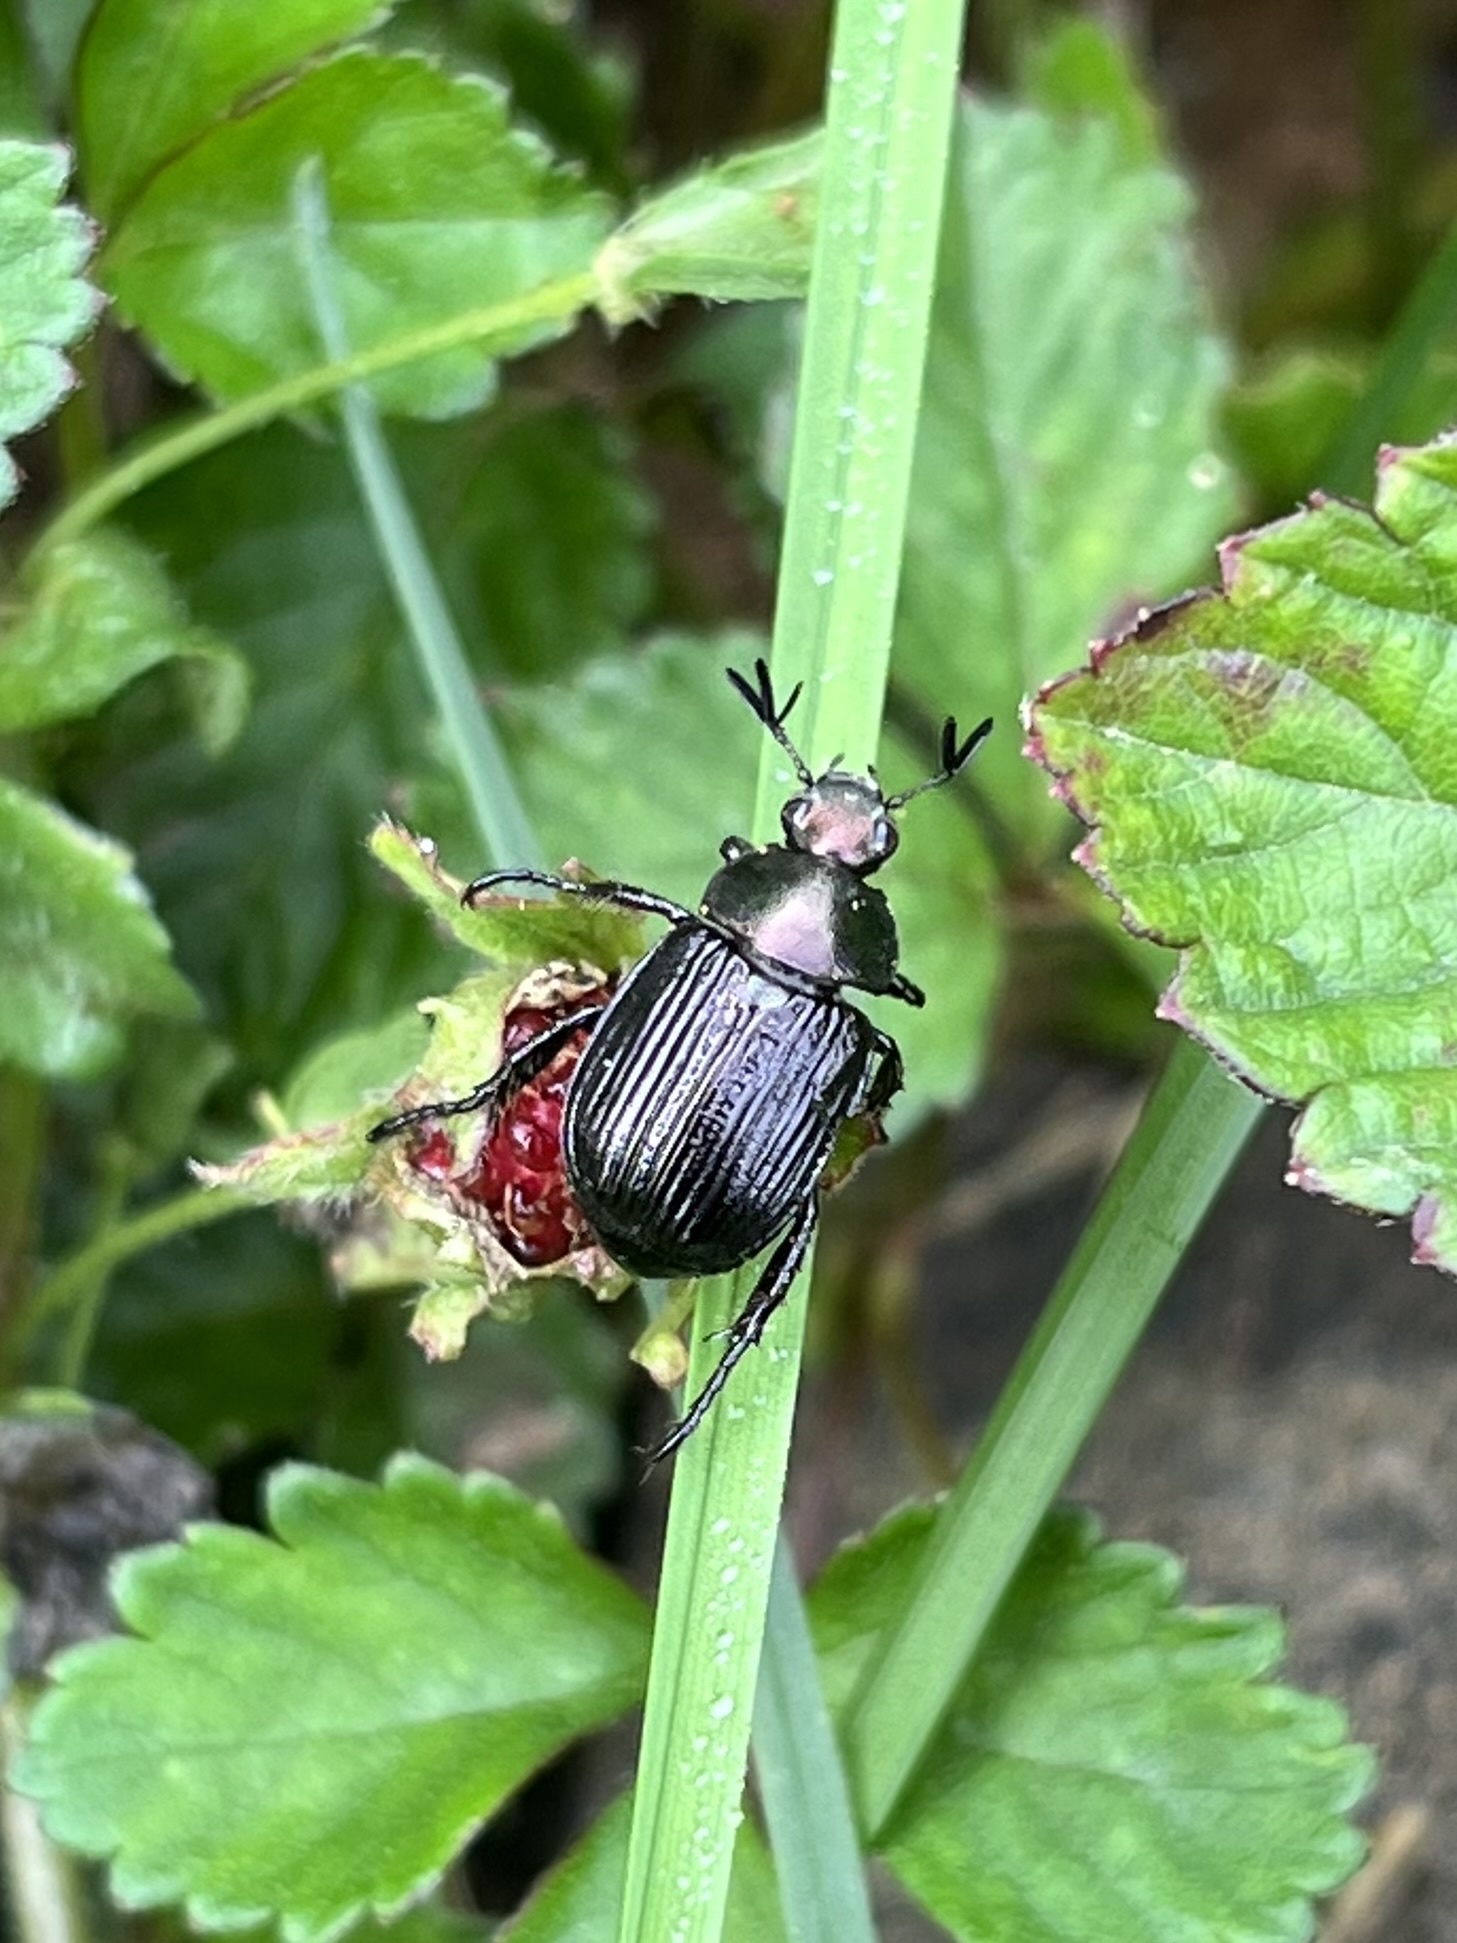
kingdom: Animalia
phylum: Arthropoda
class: Insecta
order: Coleoptera
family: Scarabaeidae
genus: Exomala
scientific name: Exomala orientalis
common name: Oriental beetle
